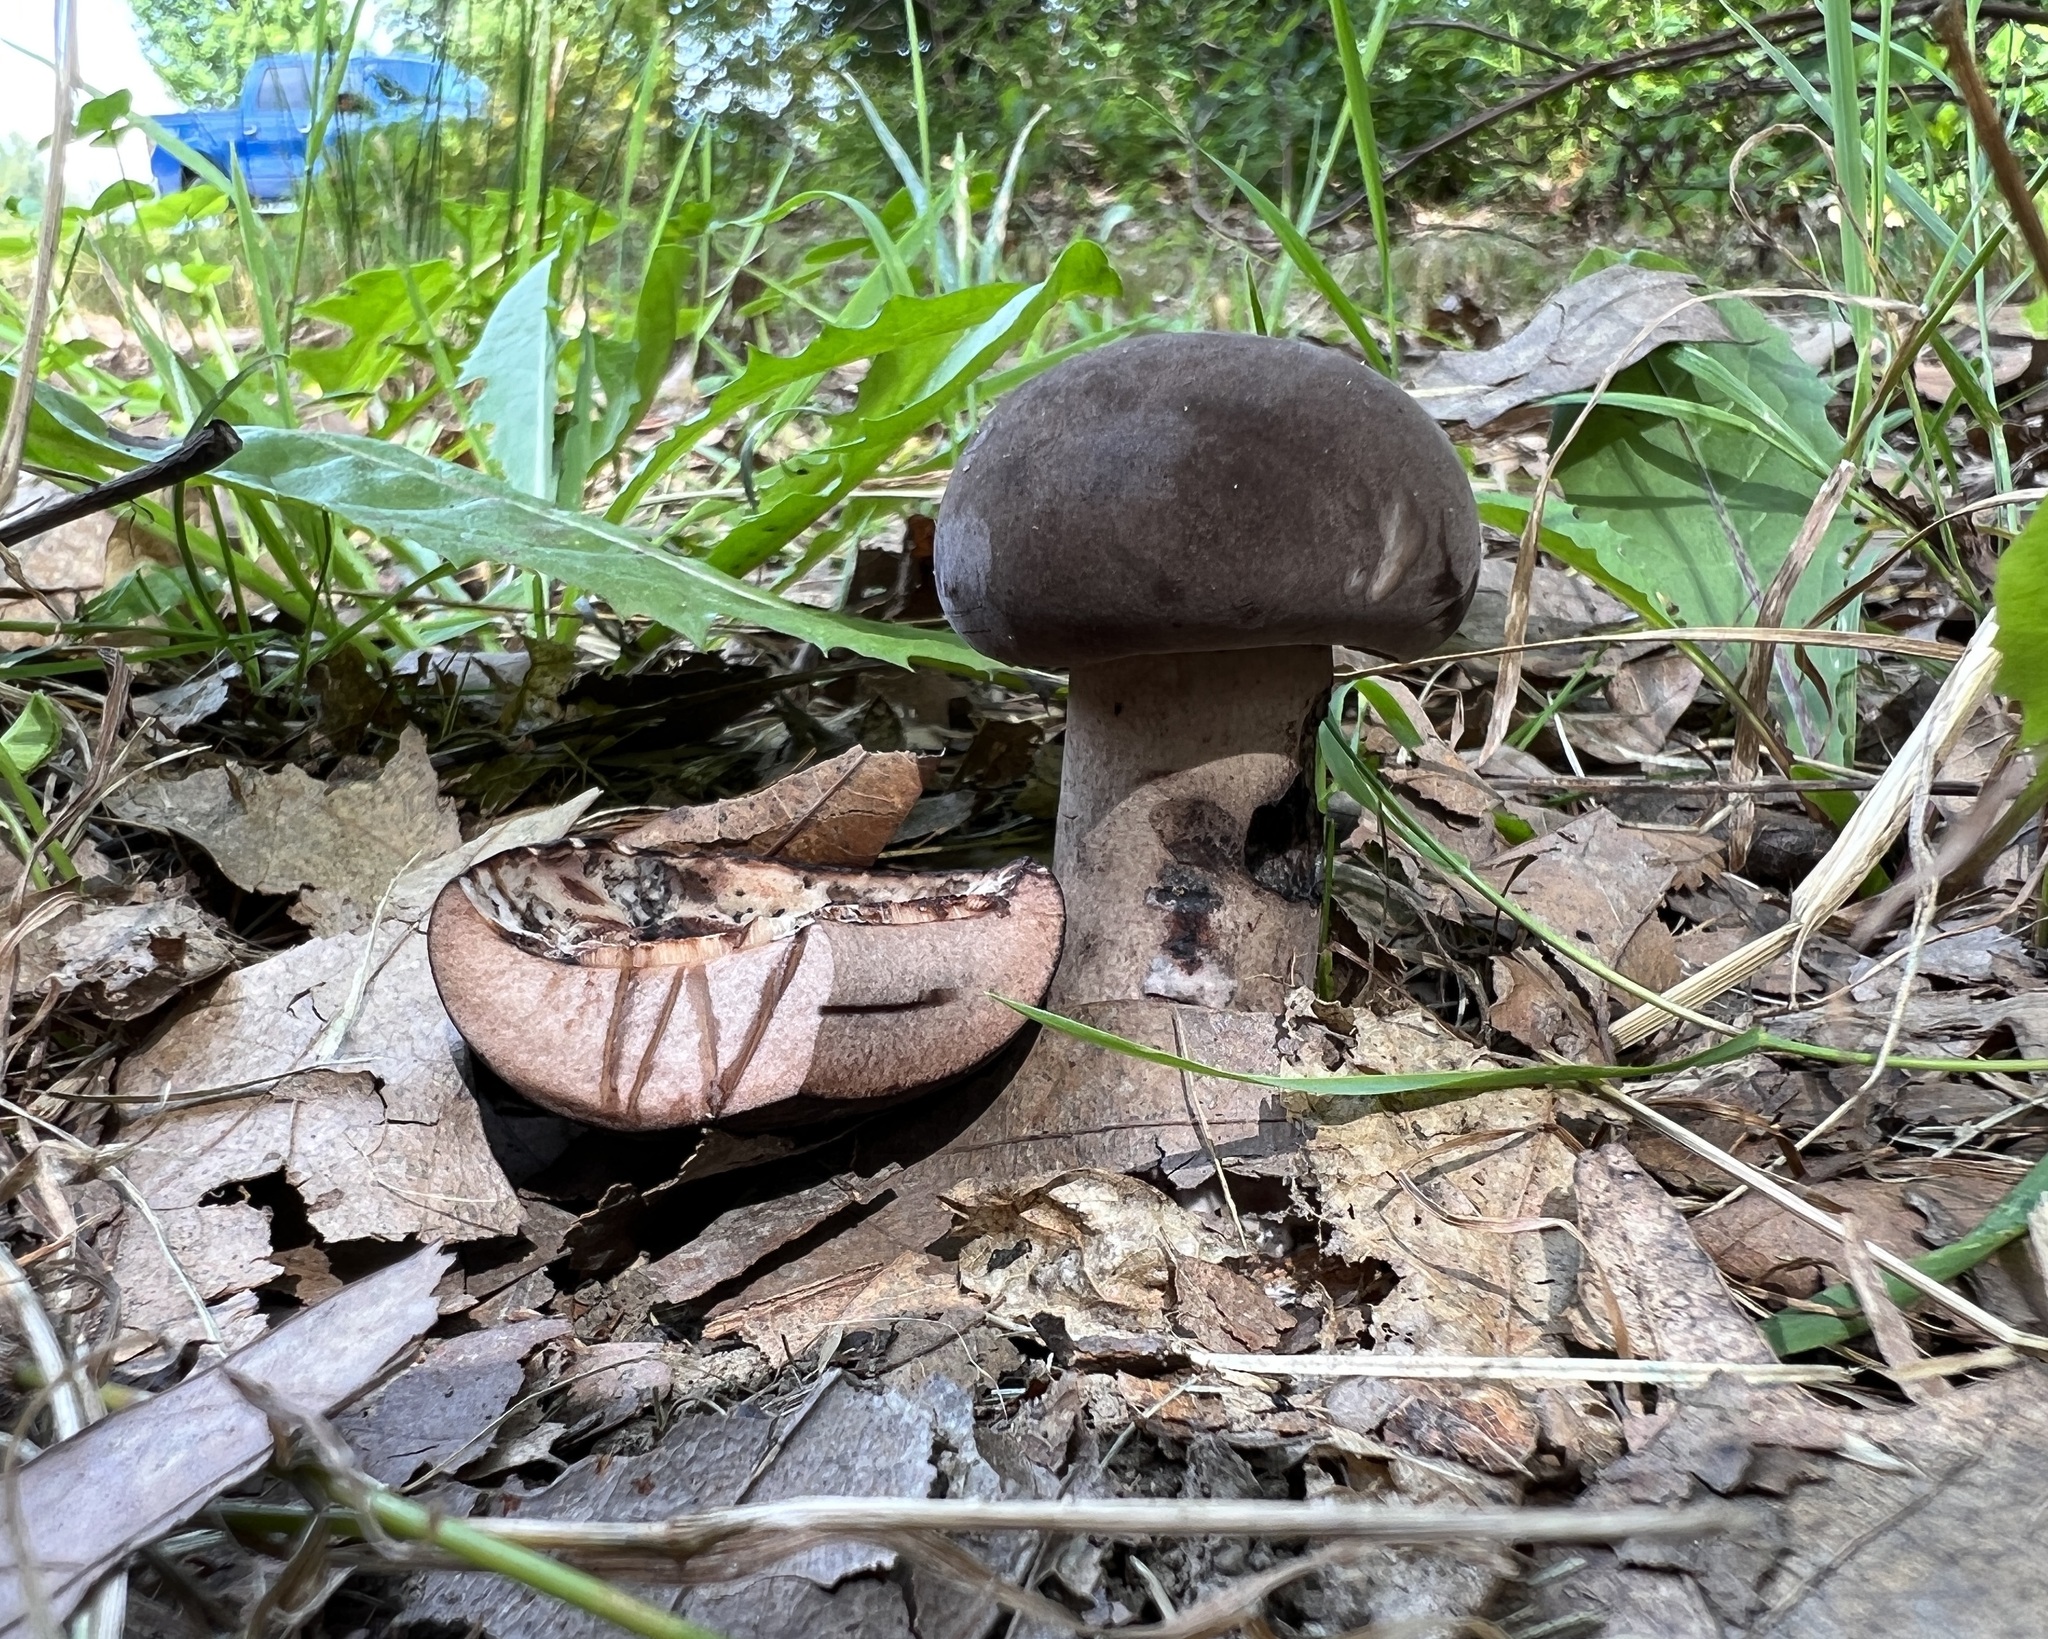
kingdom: Fungi
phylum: Basidiomycota
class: Agaricomycetes
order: Boletales
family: Boletaceae
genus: Tylopilus
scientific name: Tylopilus alboater
